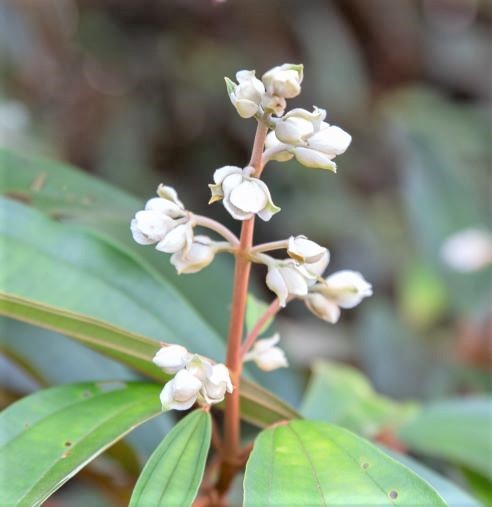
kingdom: Plantae
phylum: Tracheophyta
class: Magnoliopsida
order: Myrtales
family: Melastomataceae
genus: Miconia
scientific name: Miconia mirabilis
